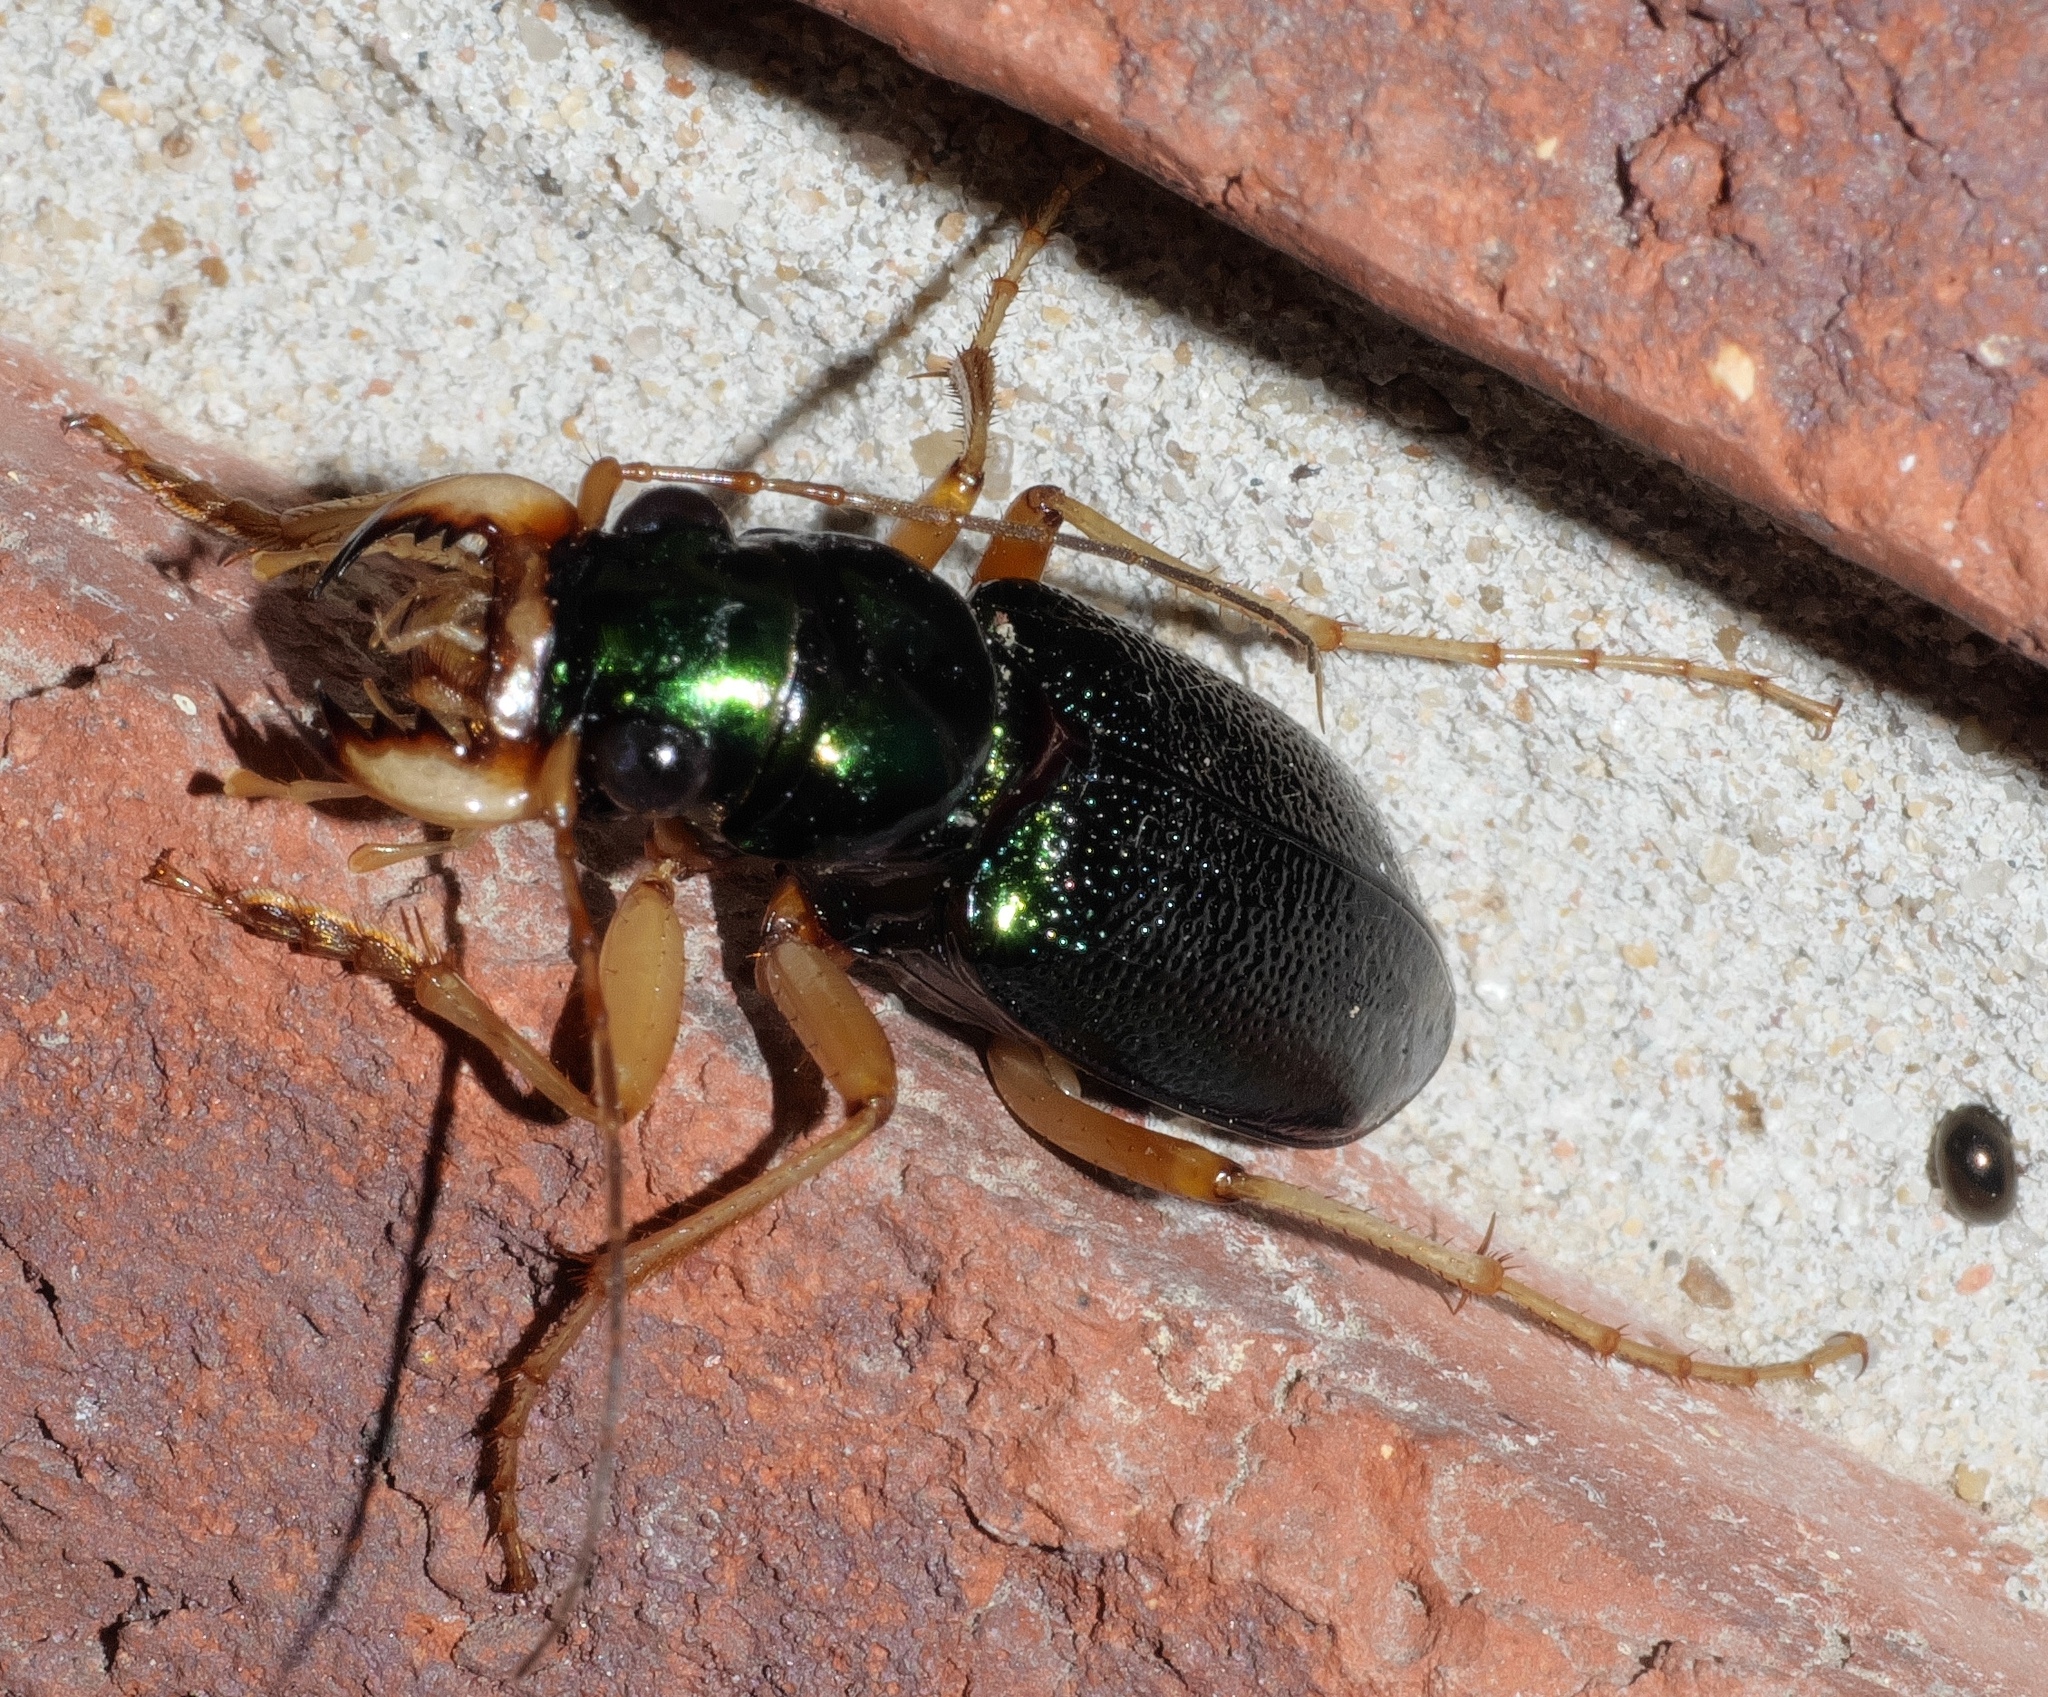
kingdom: Animalia
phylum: Arthropoda
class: Insecta
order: Coleoptera
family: Carabidae
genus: Tetracha
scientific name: Tetracha virginica
